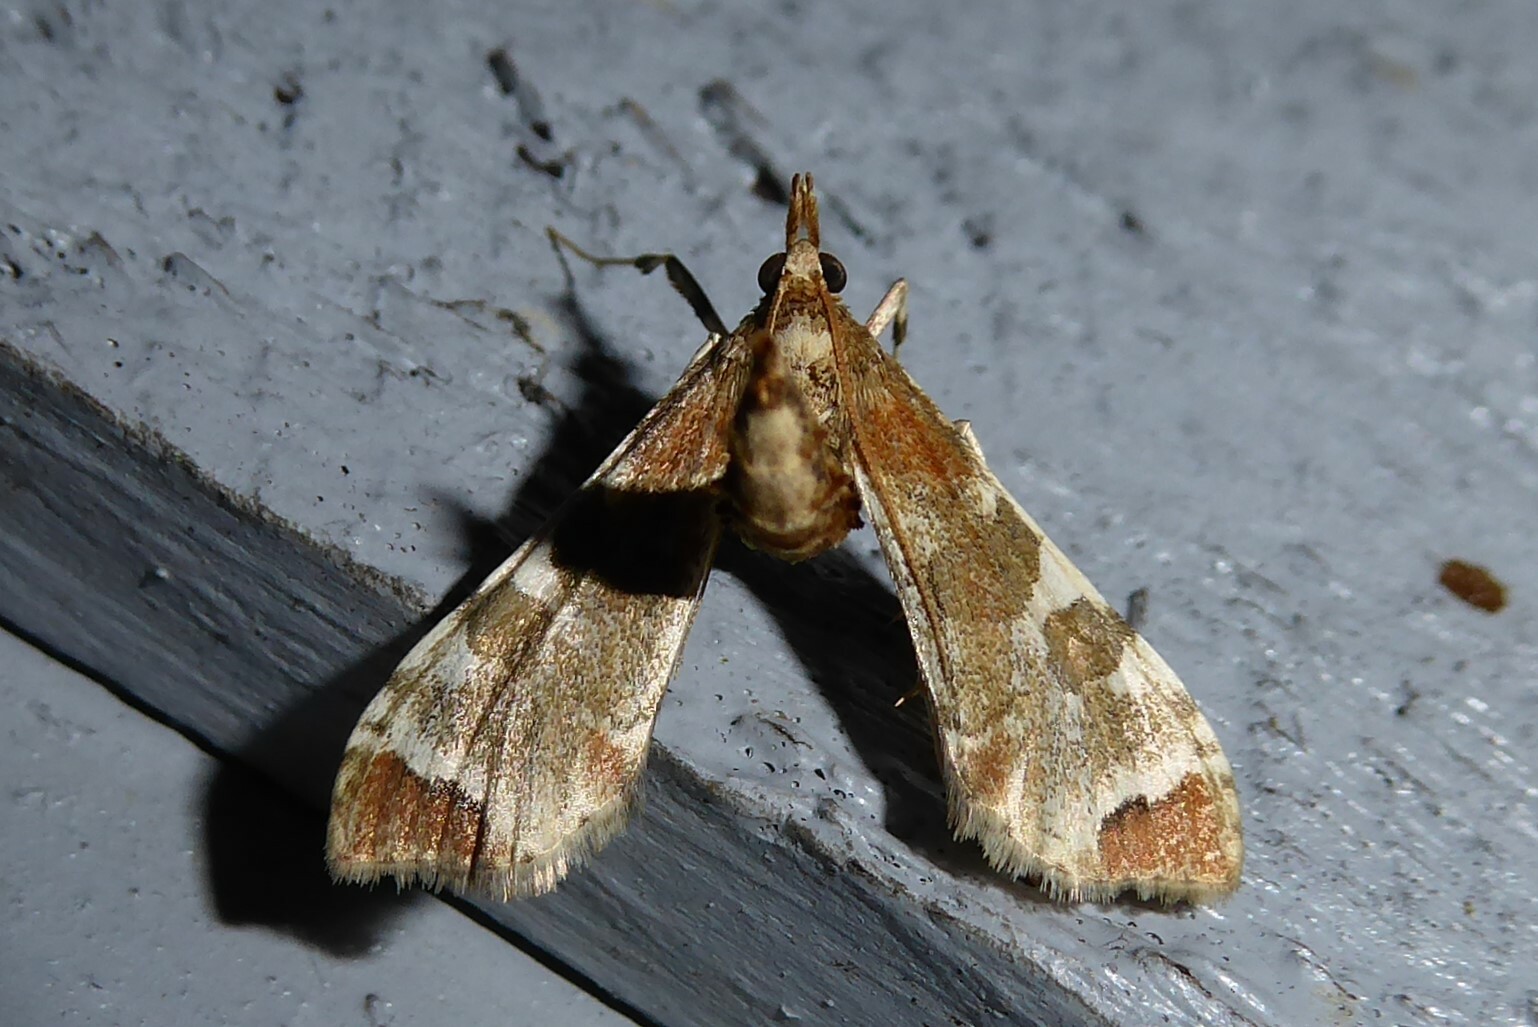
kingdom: Animalia
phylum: Arthropoda
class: Insecta
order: Lepidoptera
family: Crambidae
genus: Sceliodes
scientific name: Sceliodes cordalis
